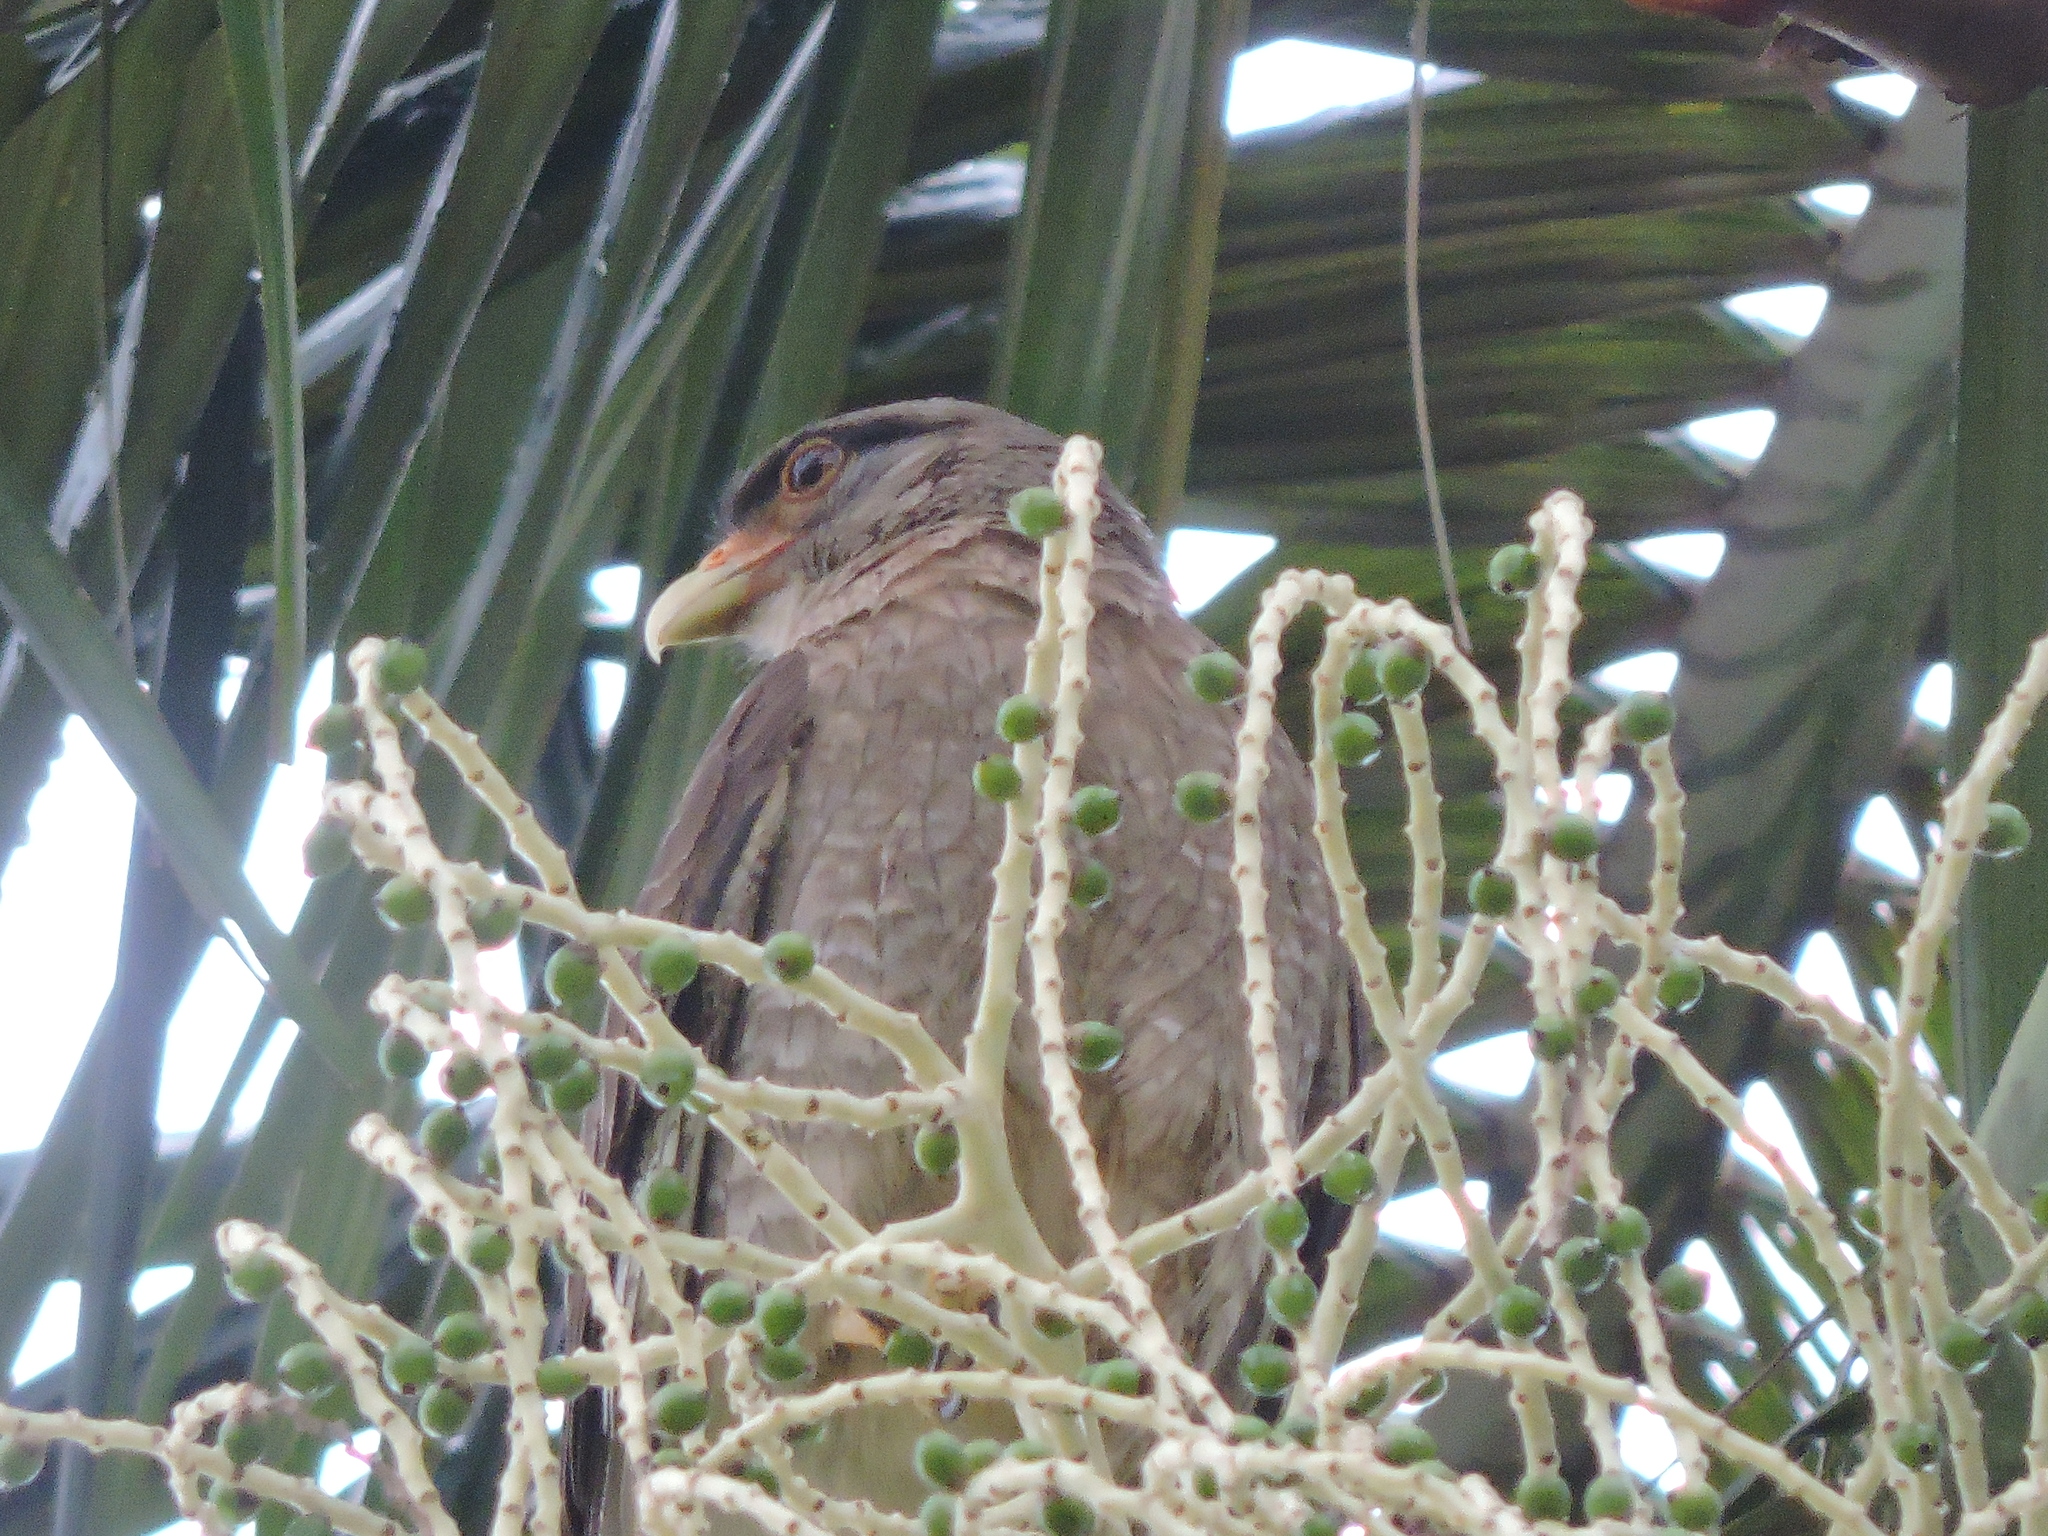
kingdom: Animalia
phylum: Chordata
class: Aves
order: Falconiformes
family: Falconidae
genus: Daptrius
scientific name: Daptrius
